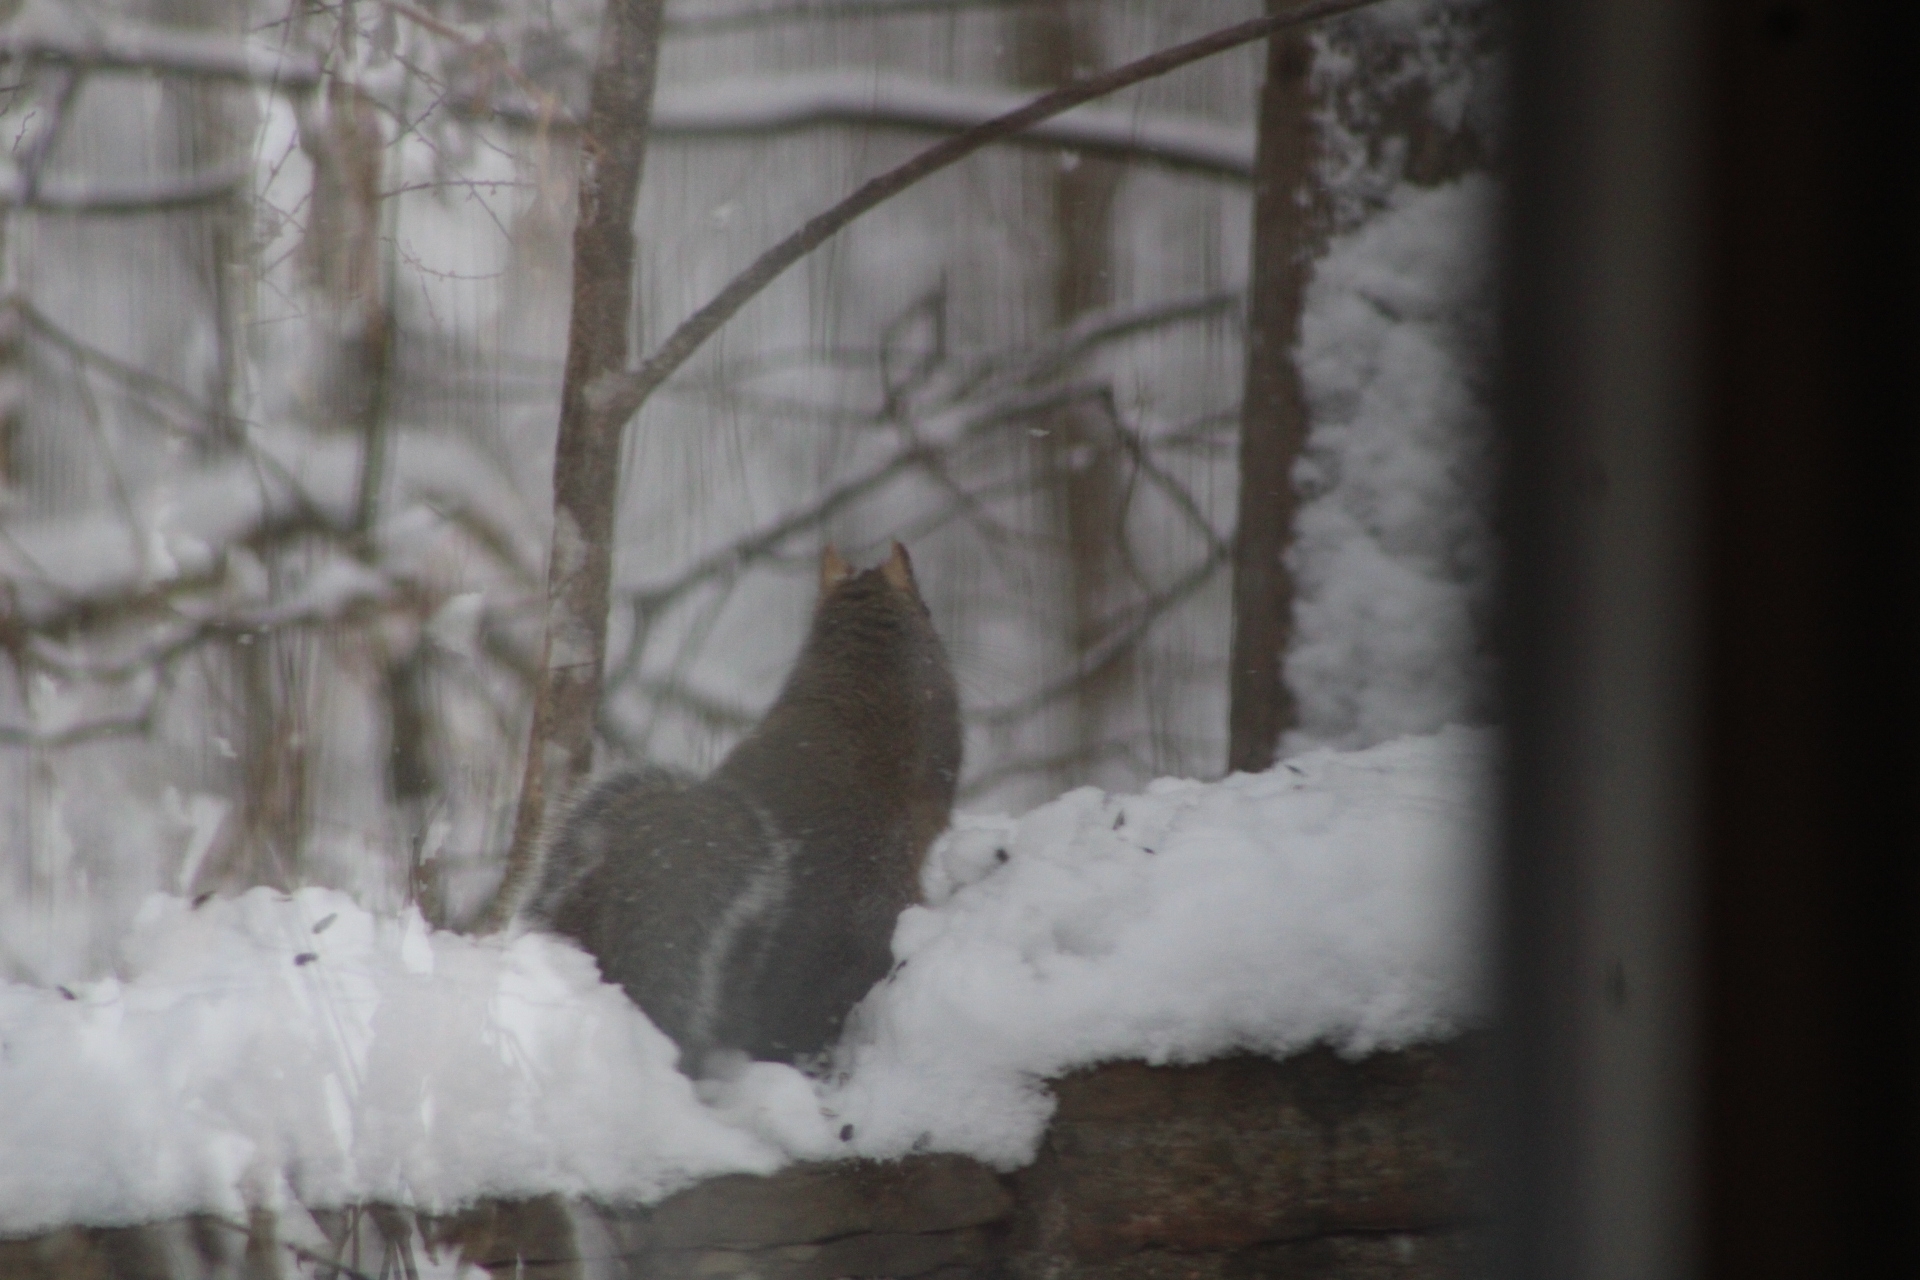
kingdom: Animalia
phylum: Chordata
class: Mammalia
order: Rodentia
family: Sciuridae
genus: Sciurus
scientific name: Sciurus carolinensis
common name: Eastern gray squirrel
